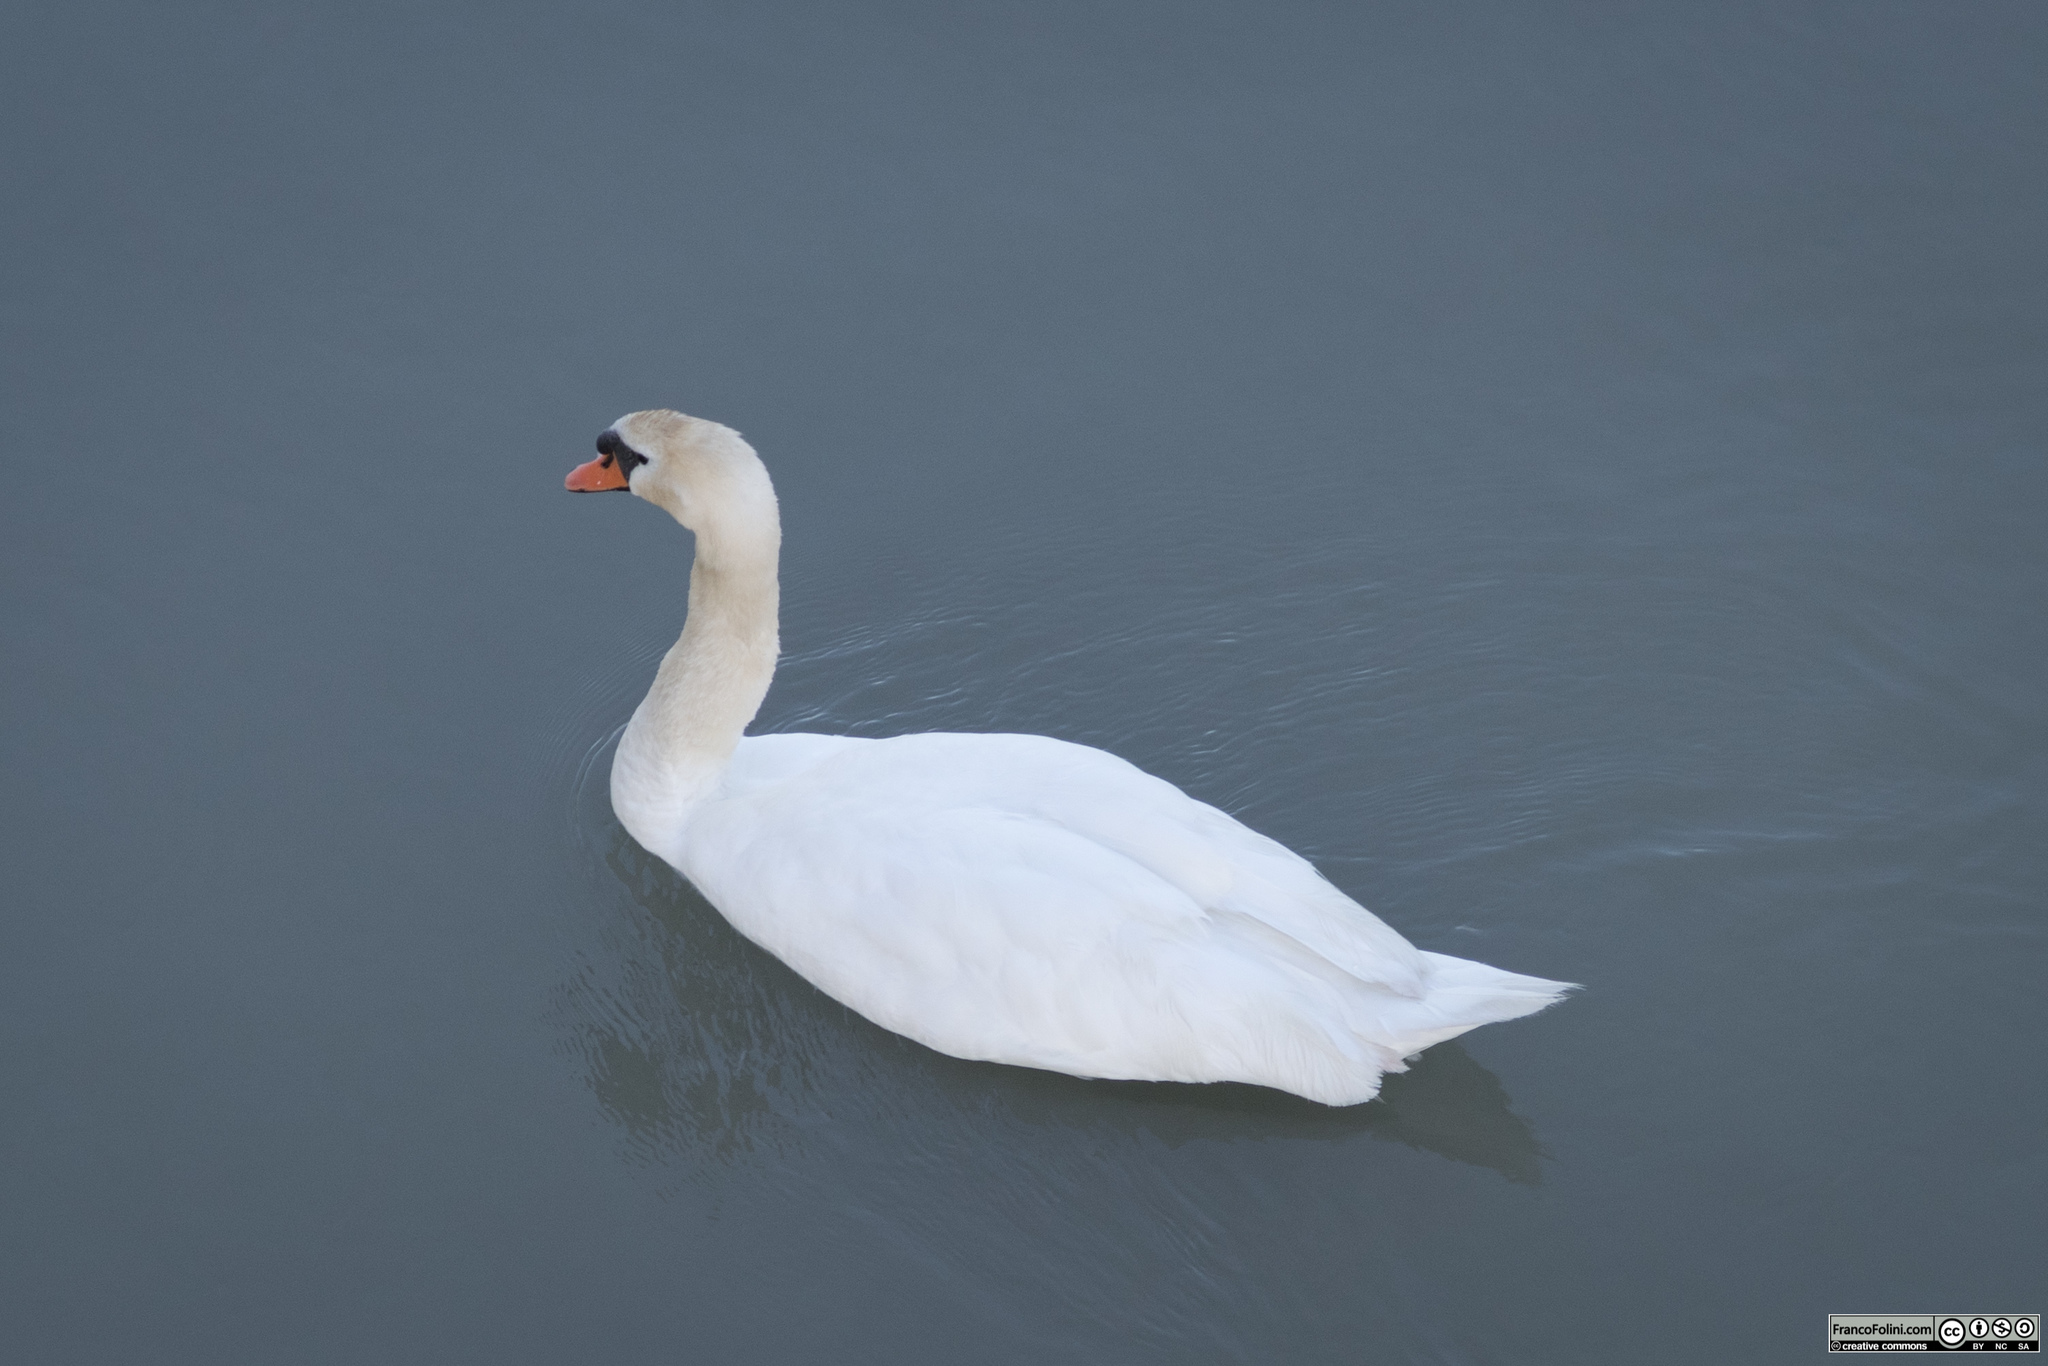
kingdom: Animalia
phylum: Chordata
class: Aves
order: Anseriformes
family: Anatidae
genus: Cygnus
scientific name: Cygnus olor
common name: Mute swan
